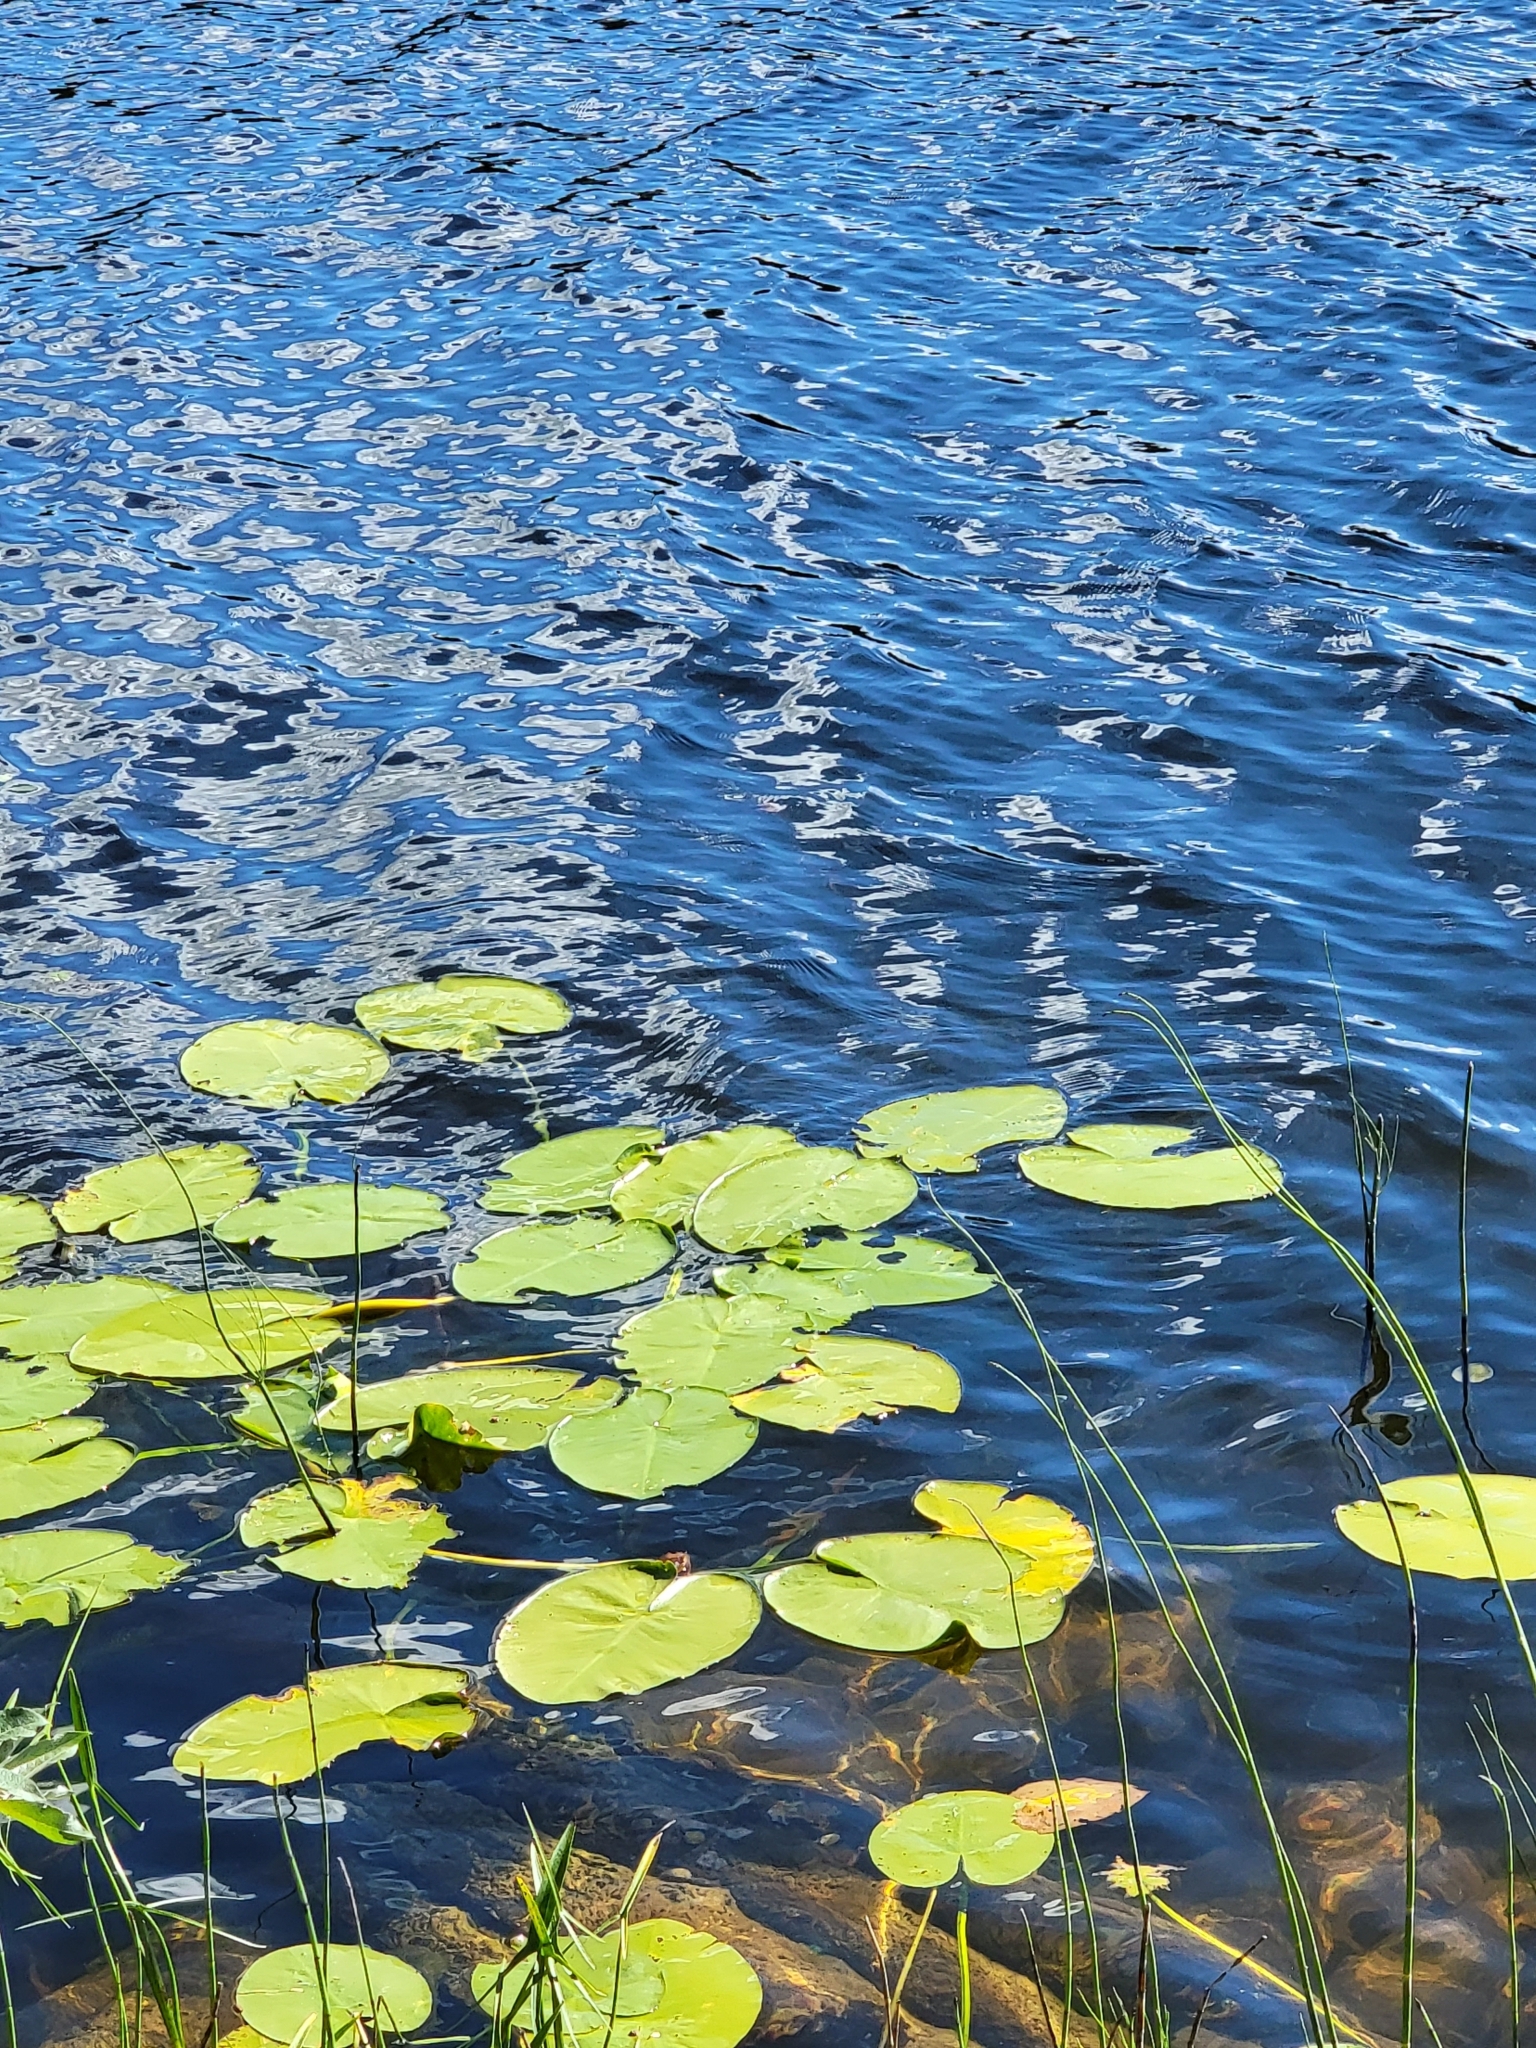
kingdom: Plantae
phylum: Tracheophyta
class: Magnoliopsida
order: Nymphaeales
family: Nymphaeaceae
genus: Nuphar
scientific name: Nuphar variegata
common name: Beaver-root
